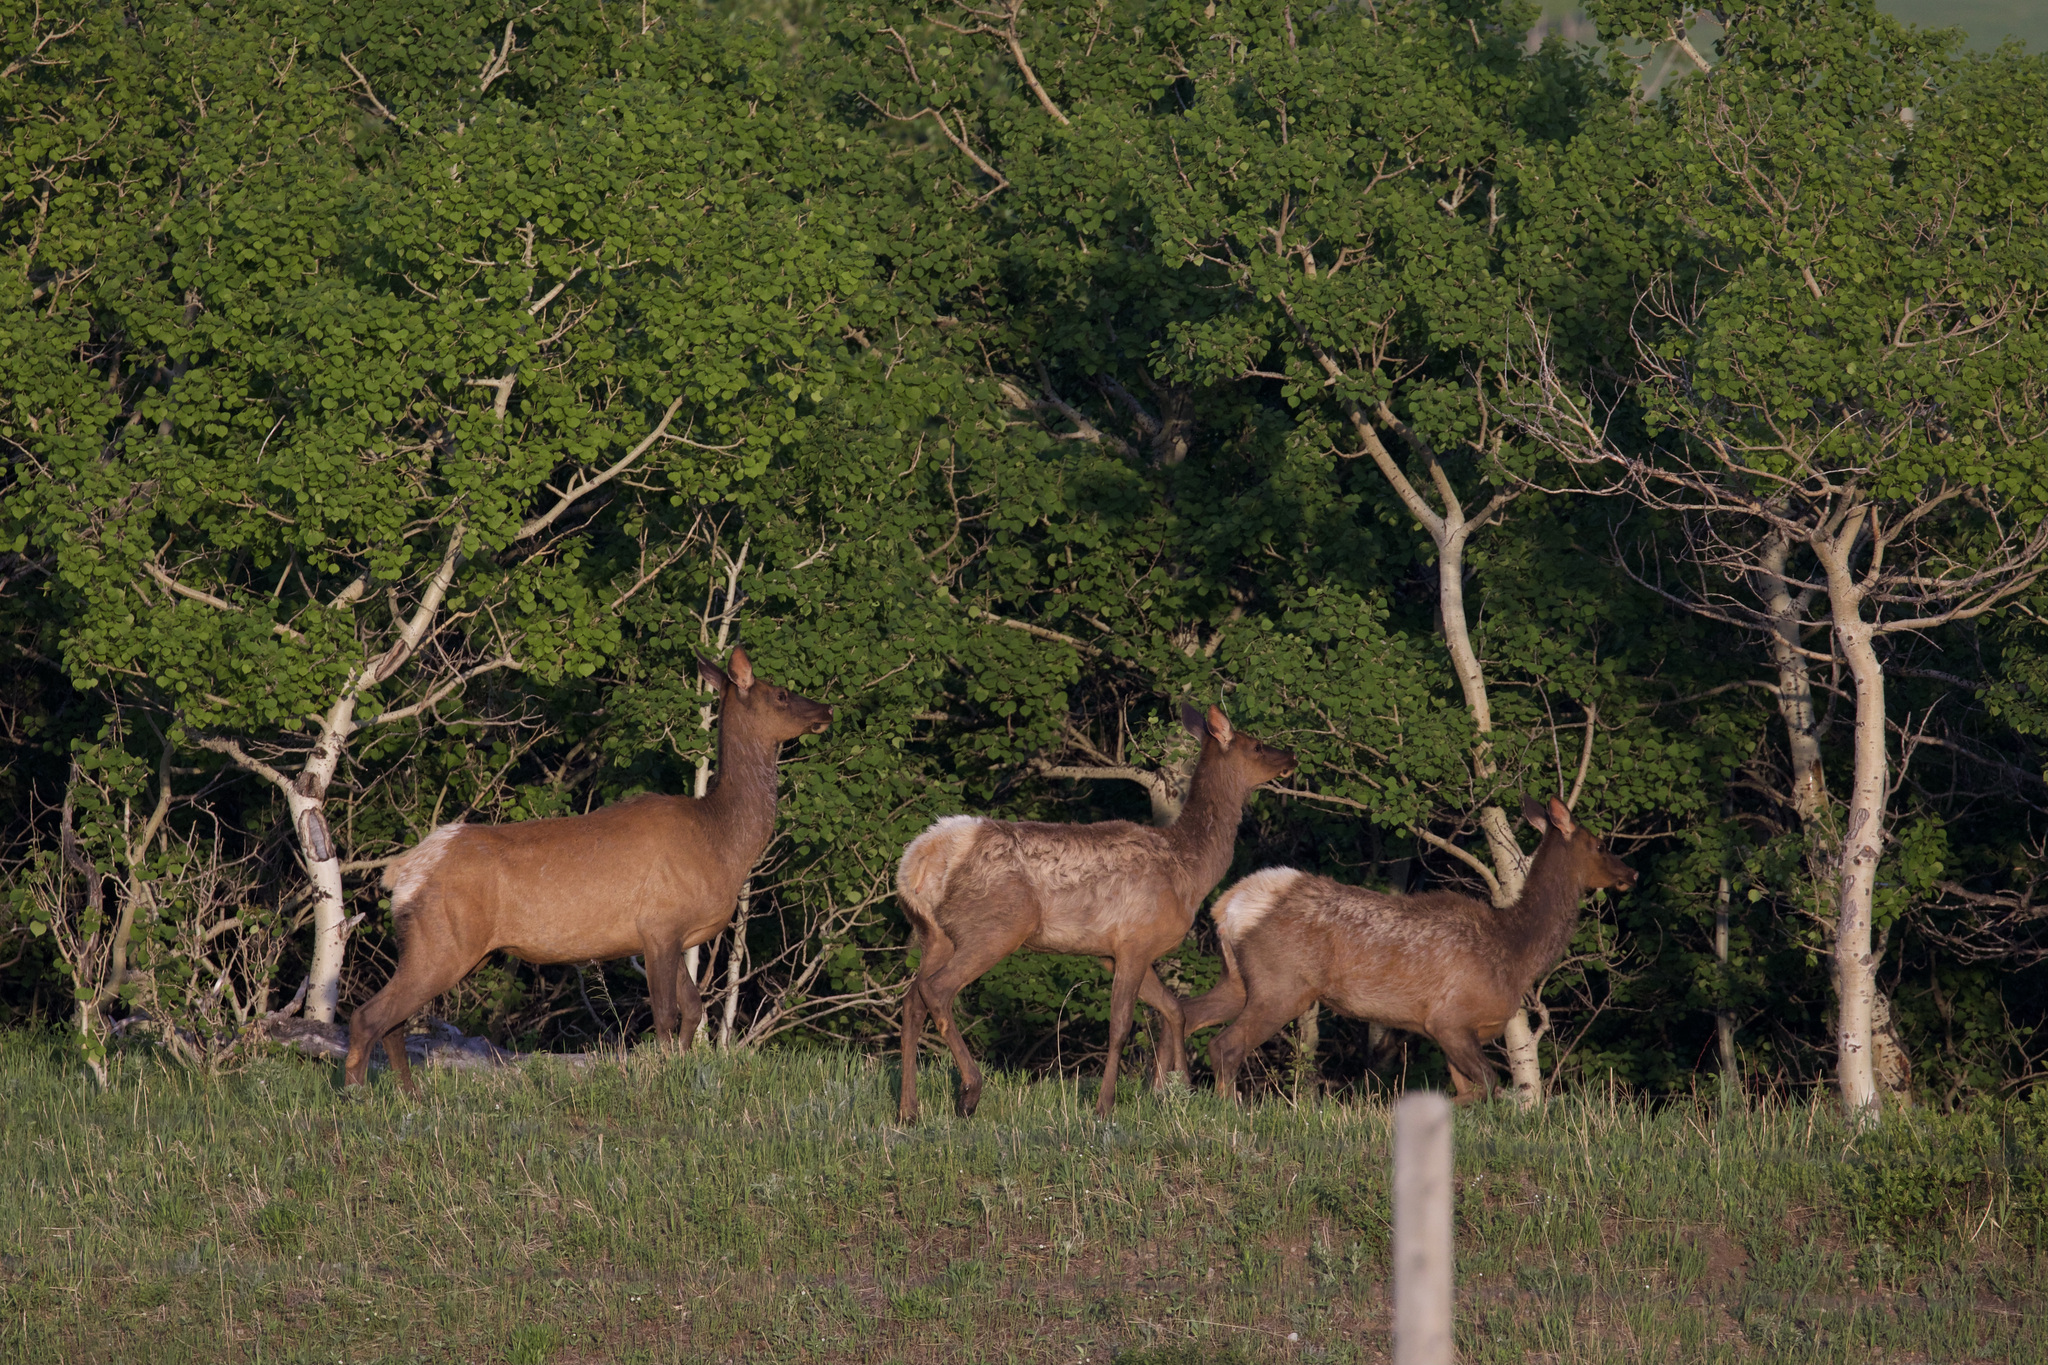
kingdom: Animalia
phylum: Chordata
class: Mammalia
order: Artiodactyla
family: Cervidae
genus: Cervus
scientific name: Cervus elaphus
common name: Red deer
